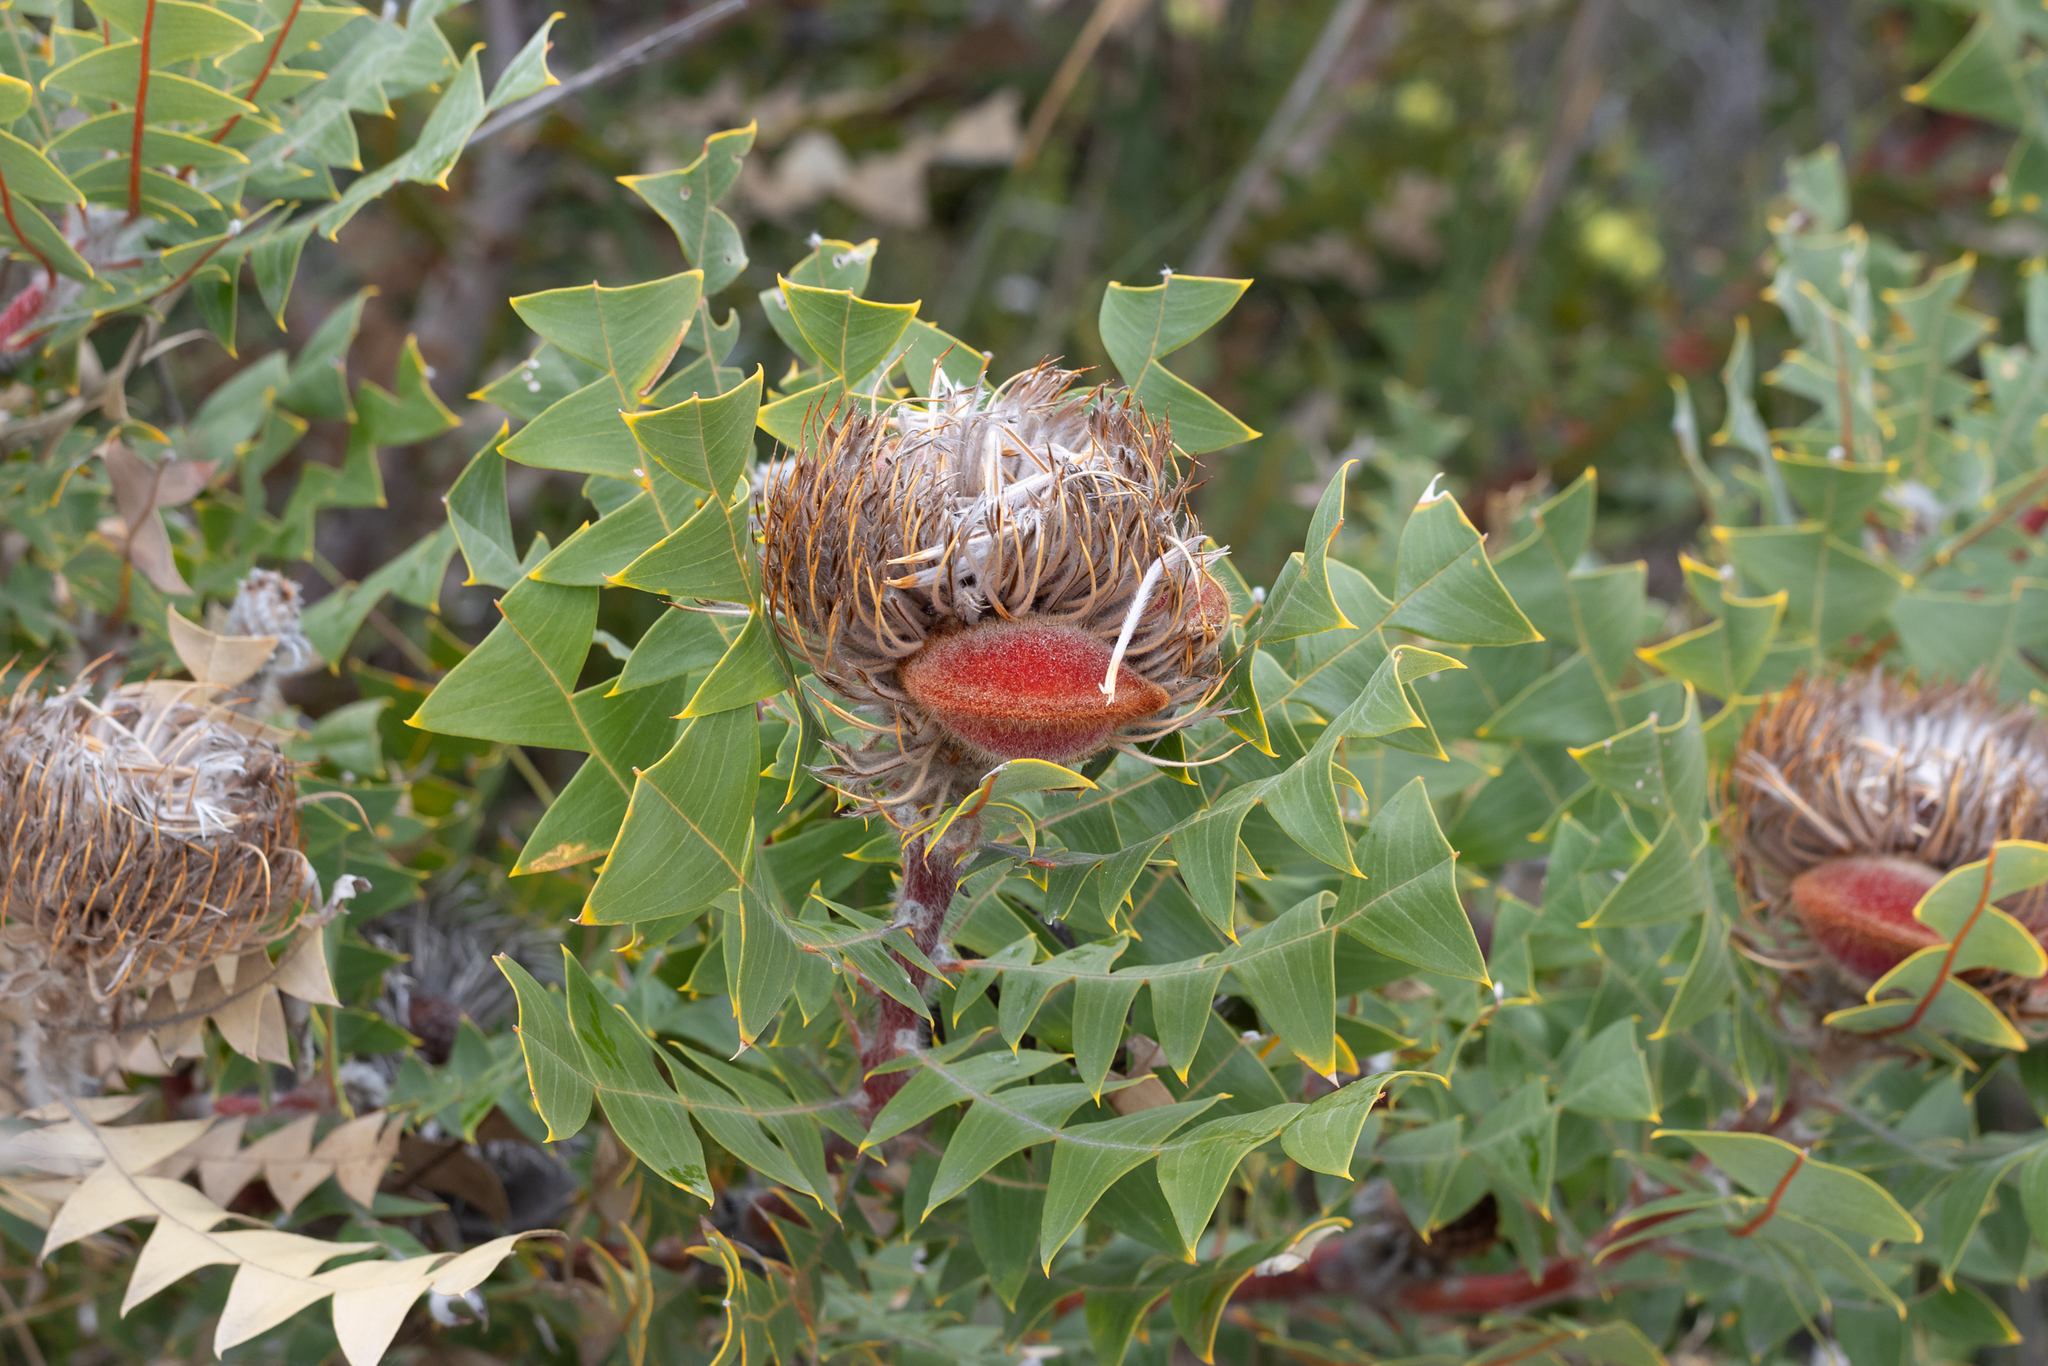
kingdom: Plantae
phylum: Tracheophyta
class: Magnoliopsida
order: Proteales
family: Proteaceae
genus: Banksia
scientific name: Banksia baxteri
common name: Bird's-nest banksia
